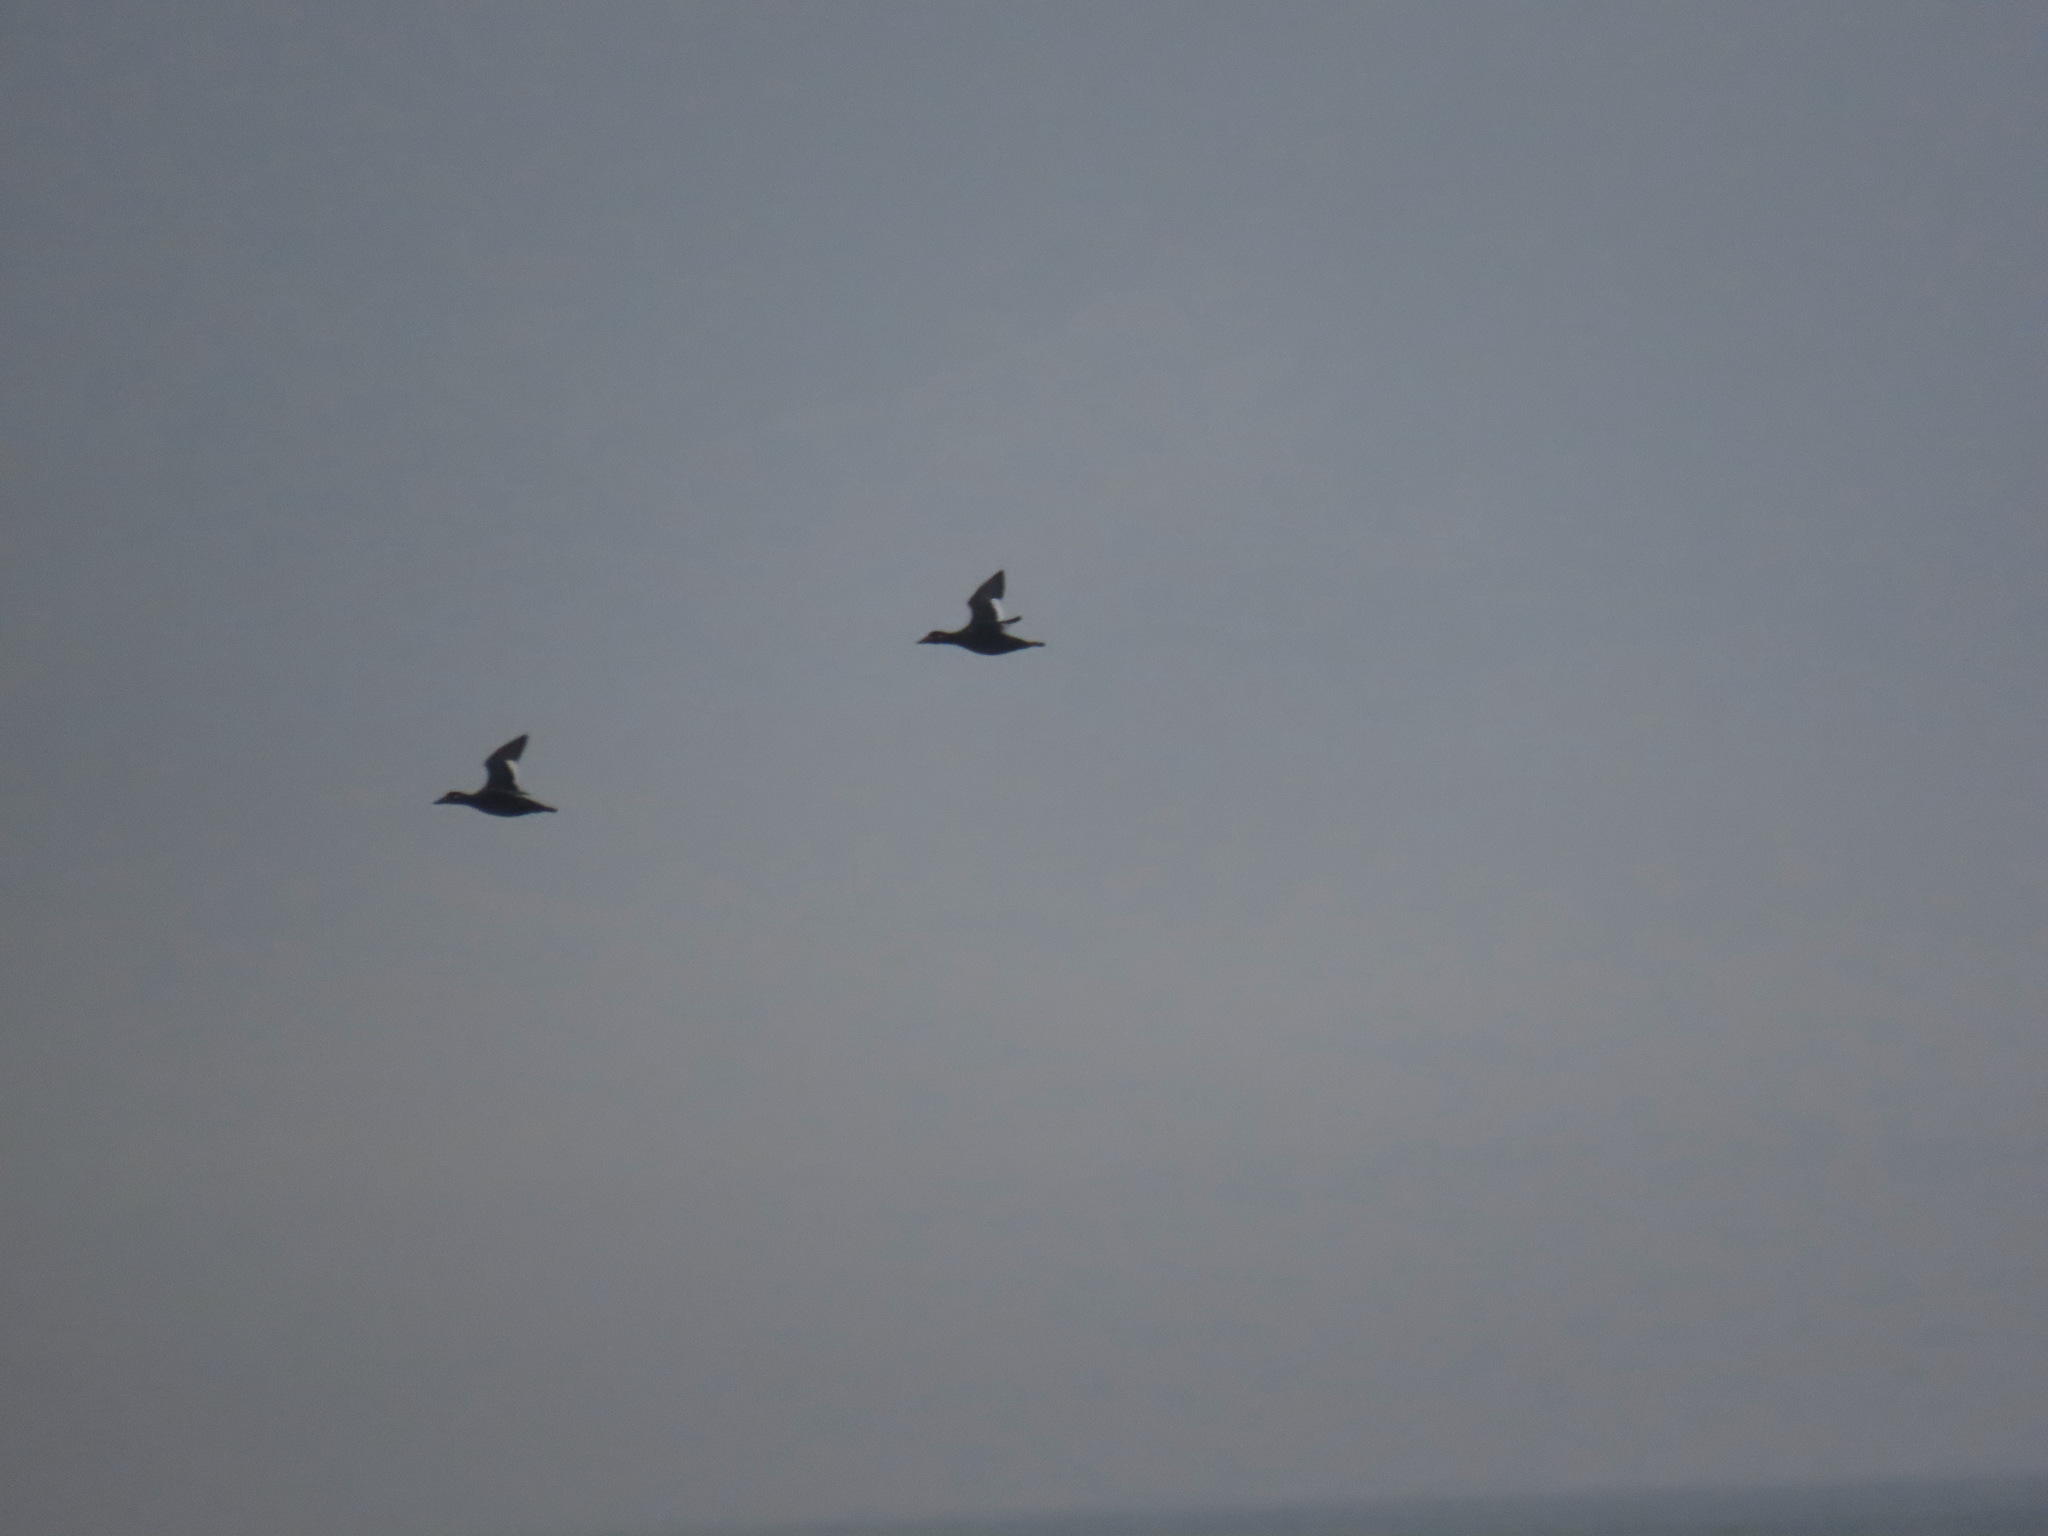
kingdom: Animalia
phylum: Chordata
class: Aves
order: Anseriformes
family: Anatidae
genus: Melanitta
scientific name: Melanitta deglandi
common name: White-winged scoter
